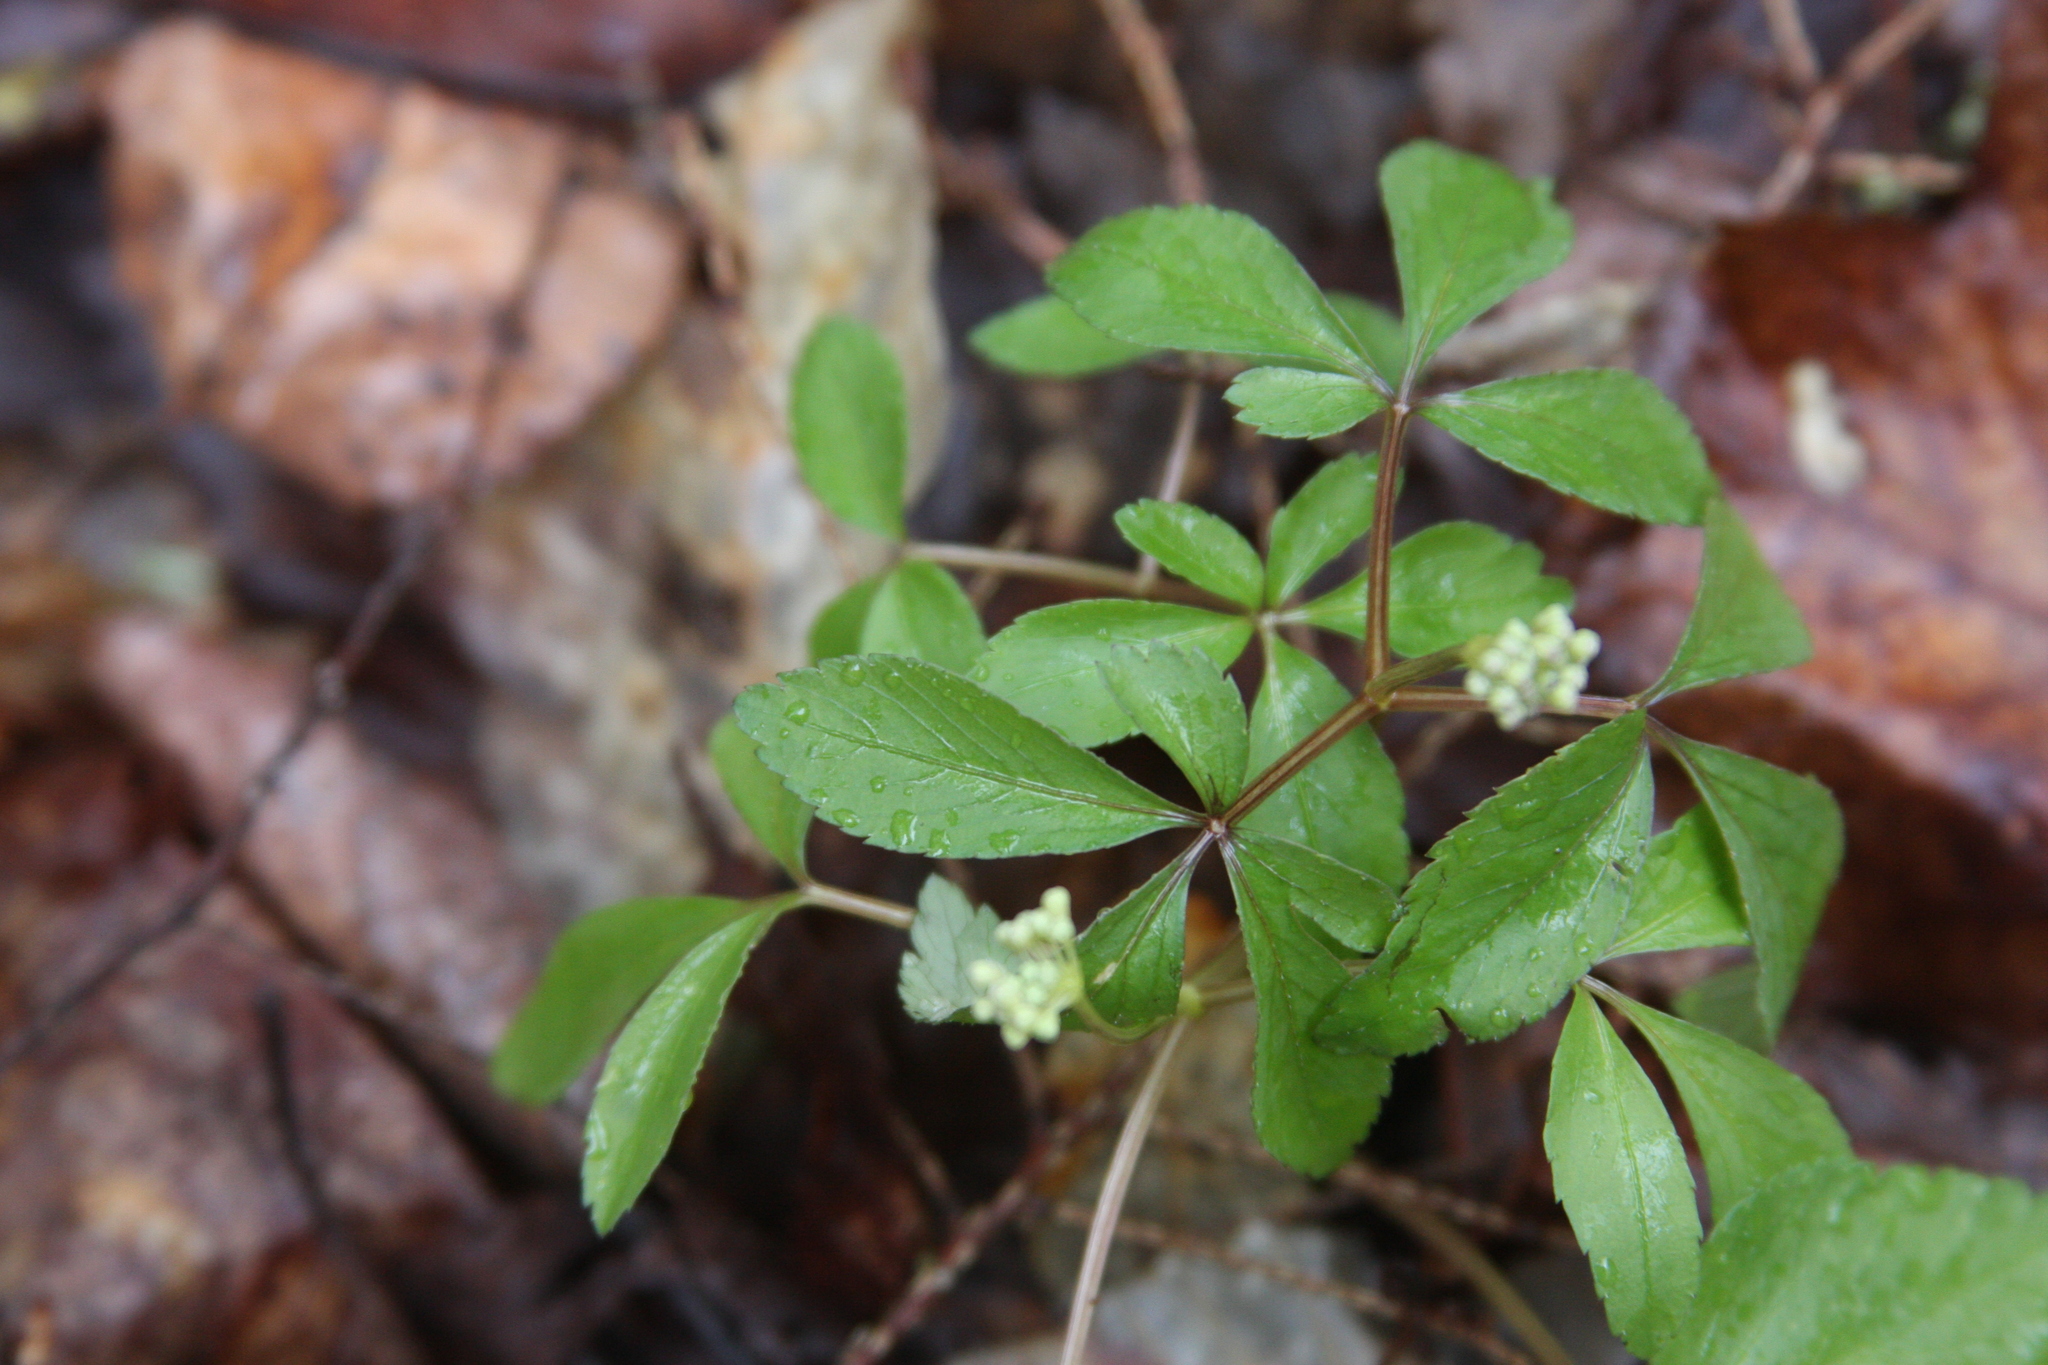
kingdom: Plantae
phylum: Tracheophyta
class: Magnoliopsida
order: Apiales
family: Araliaceae
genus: Panax
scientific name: Panax trifolius
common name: Dwarf ginseng
